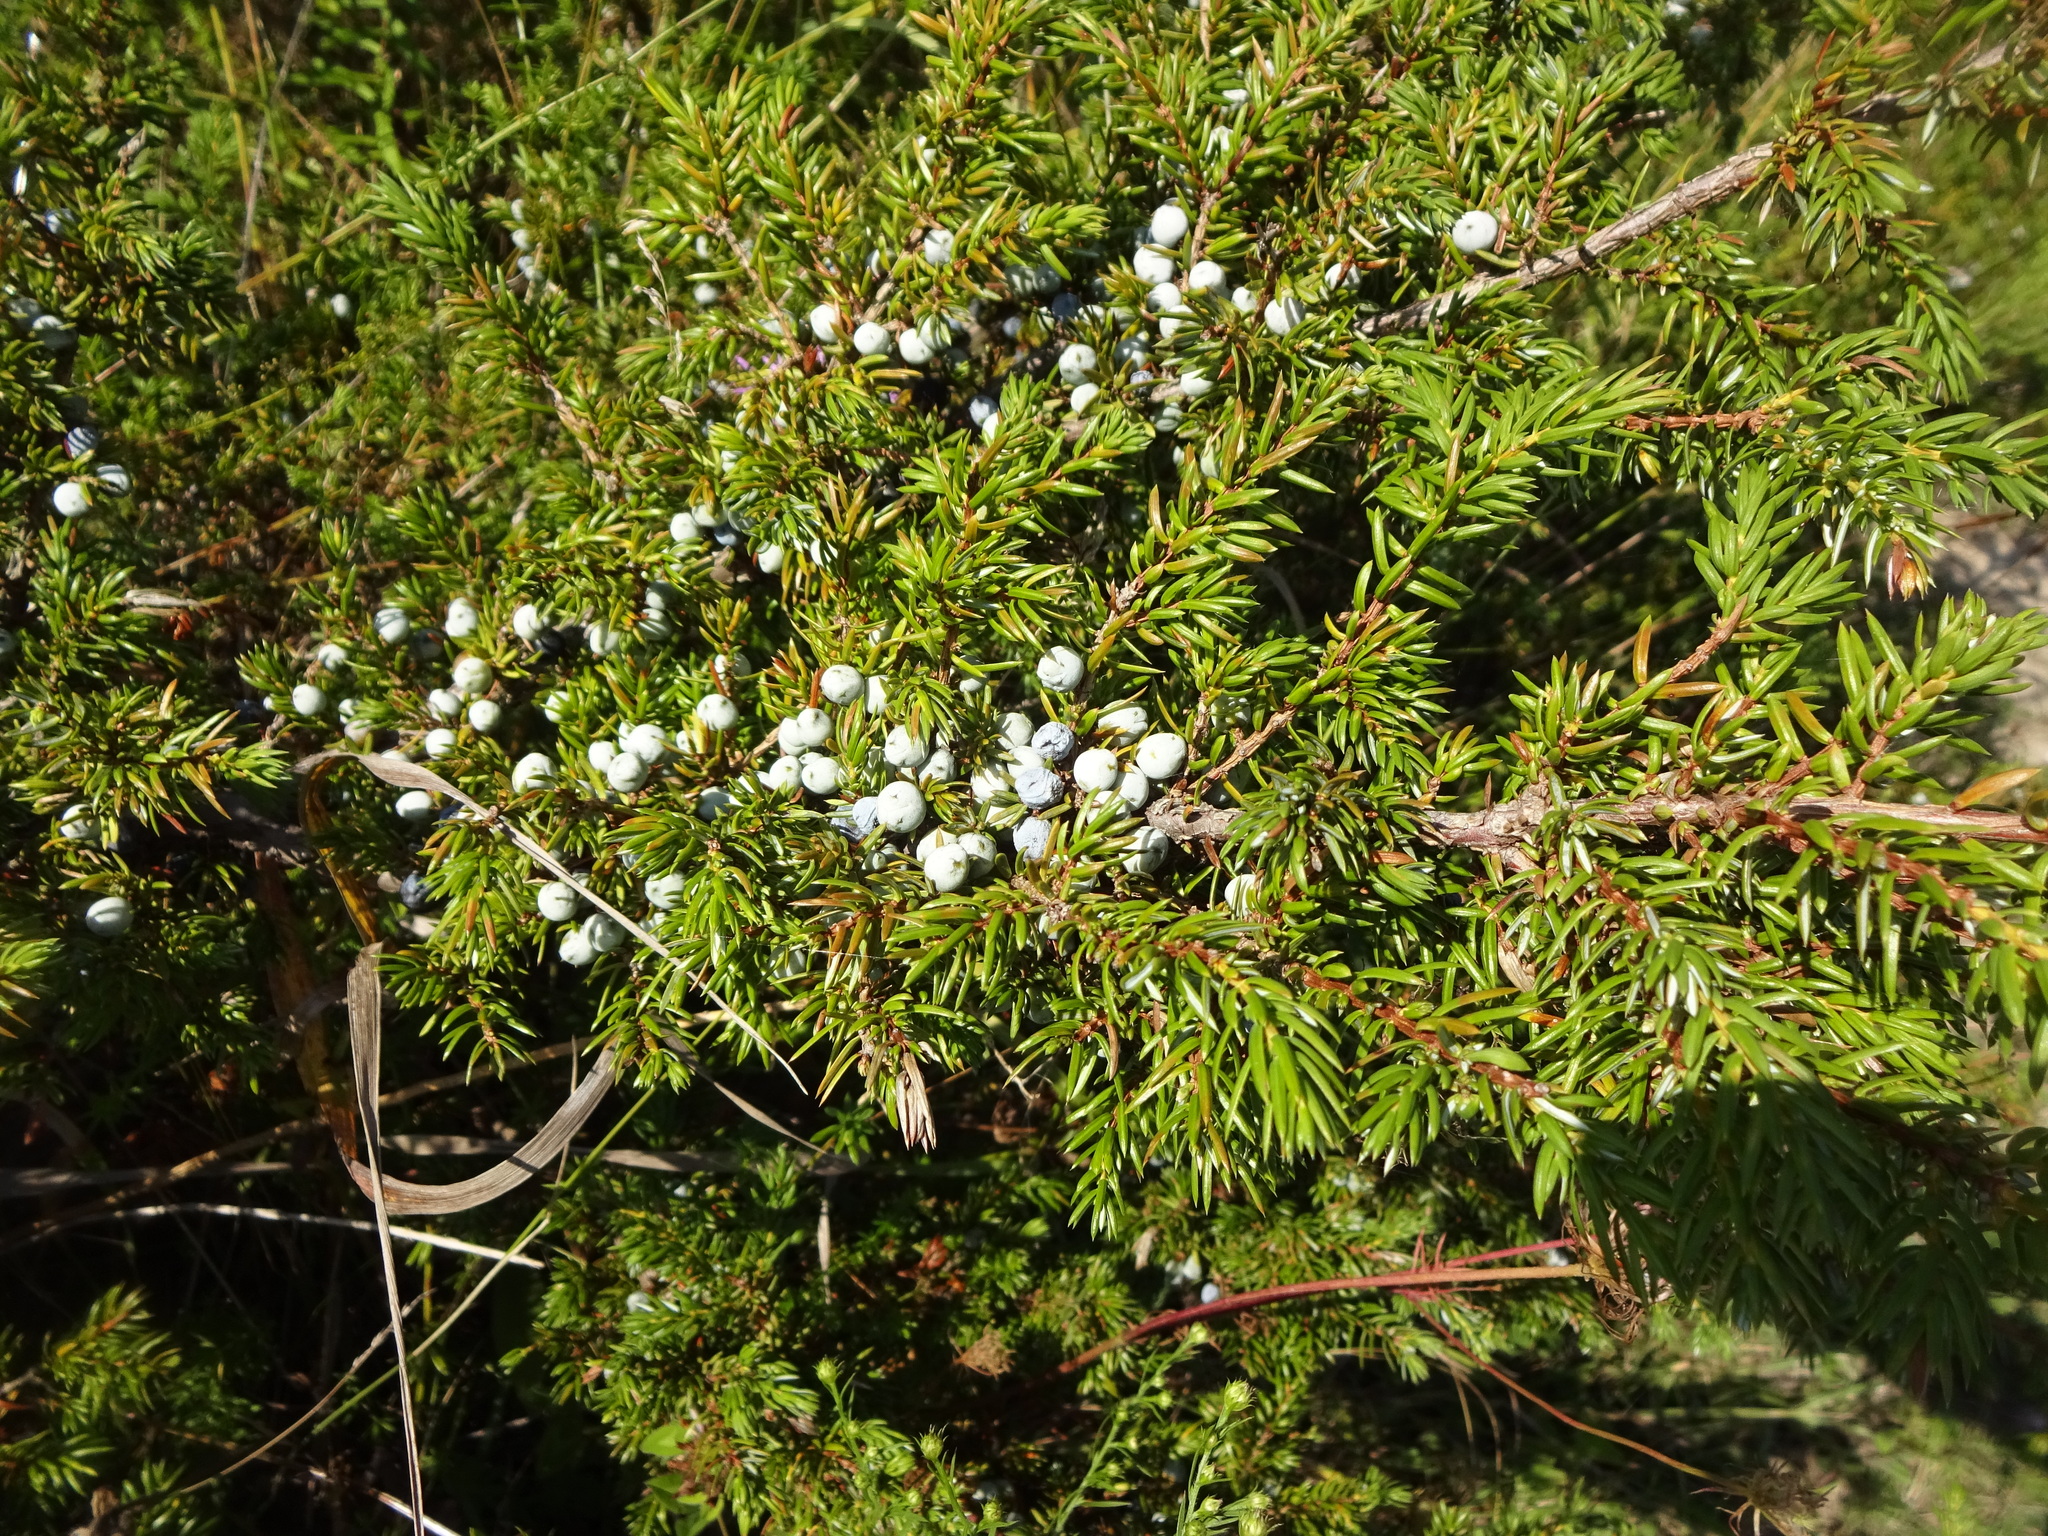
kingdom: Plantae
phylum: Tracheophyta
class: Pinopsida
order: Pinales
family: Cupressaceae
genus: Juniperus
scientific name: Juniperus communis
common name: Common juniper
